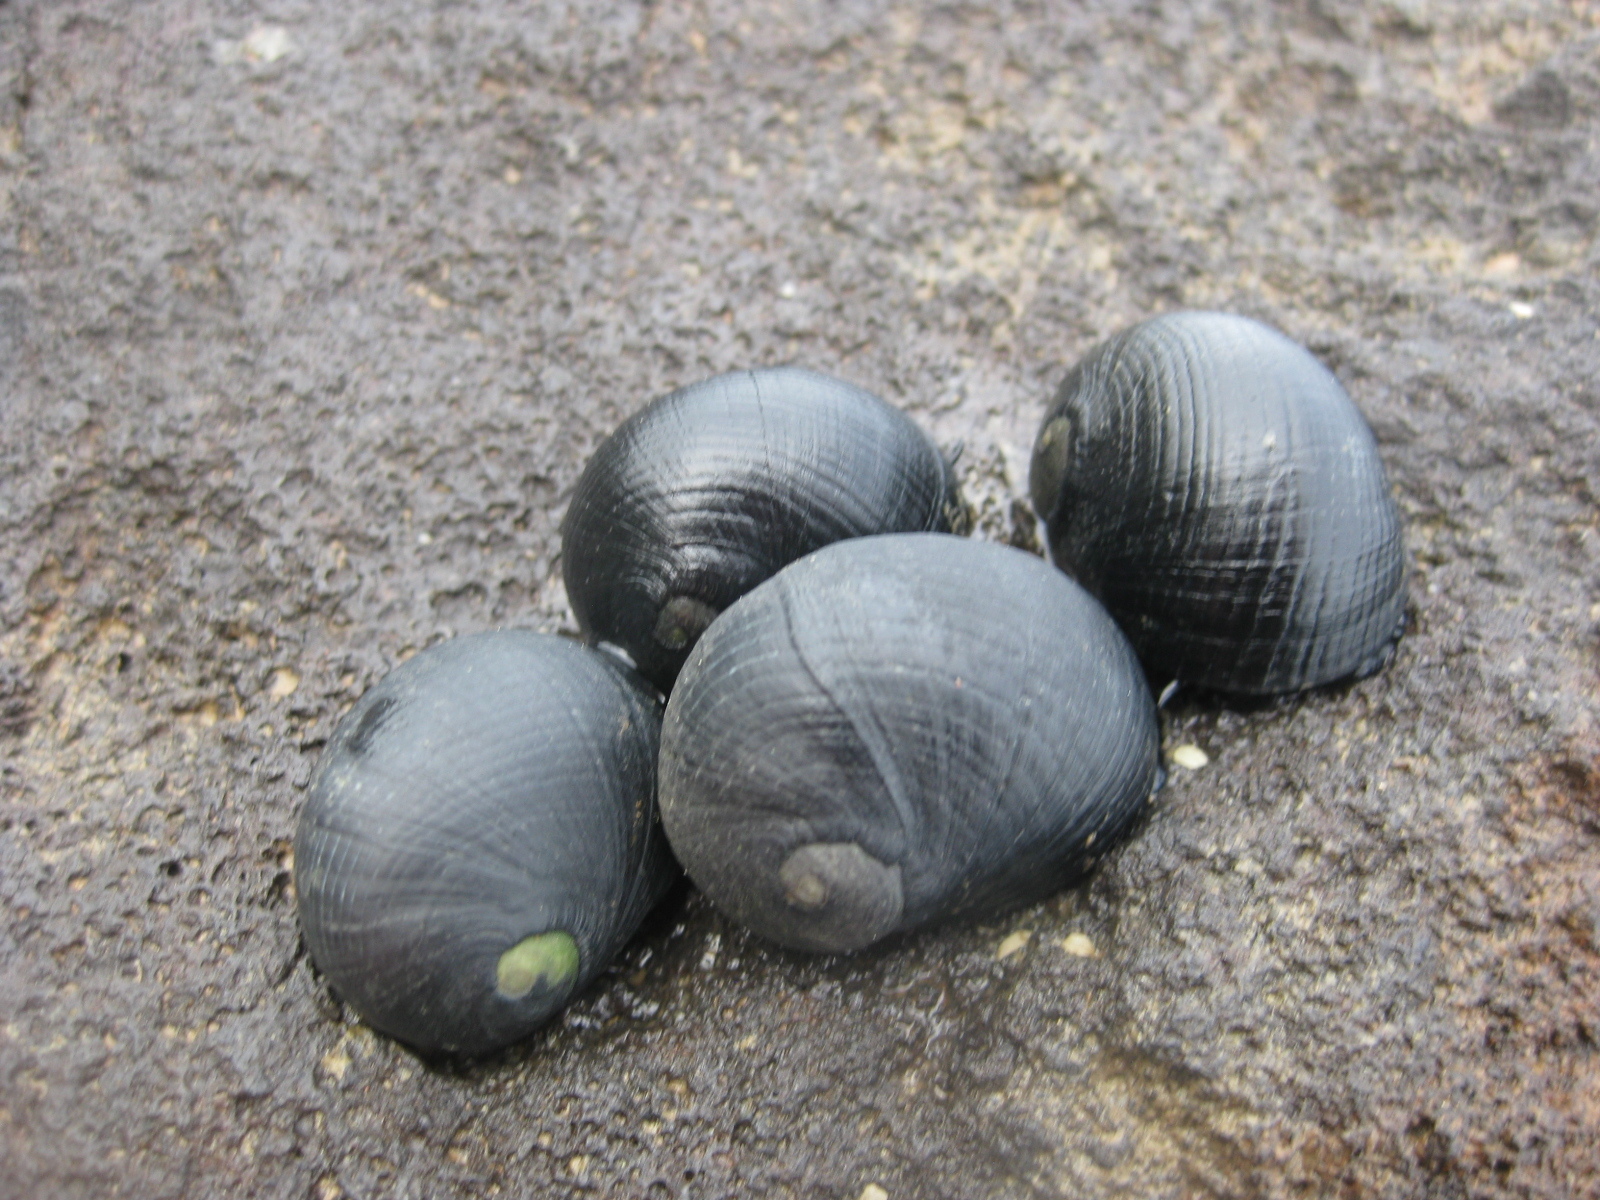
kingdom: Animalia
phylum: Mollusca
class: Gastropoda
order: Cycloneritida
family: Neritidae
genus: Nerita
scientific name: Nerita melanotragus
